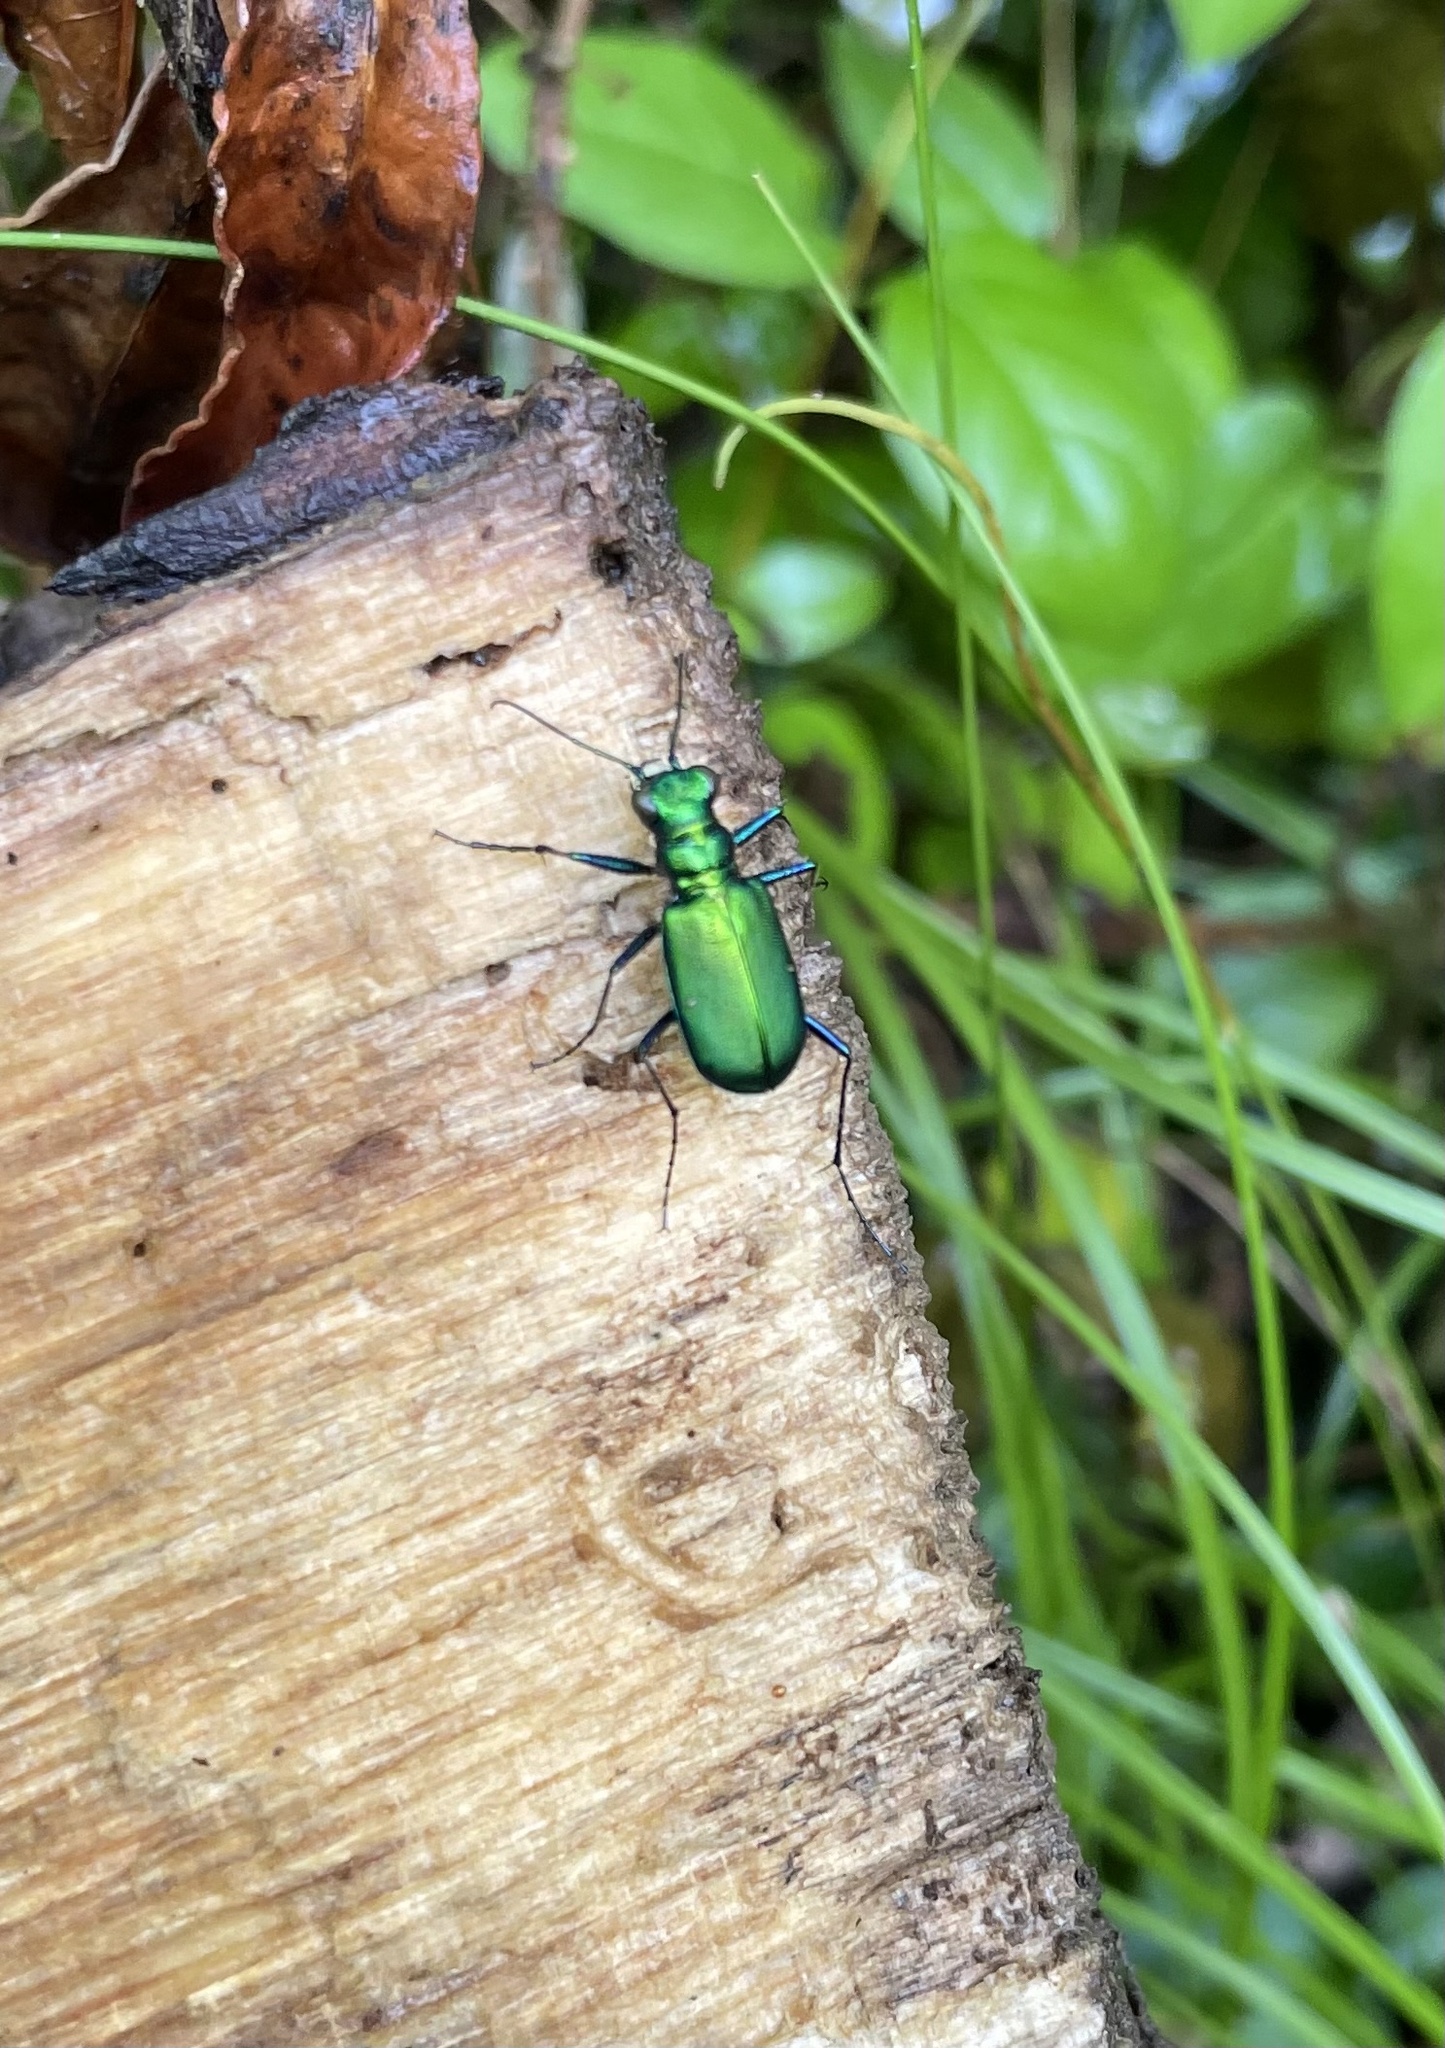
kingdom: Animalia
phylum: Arthropoda
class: Insecta
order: Coleoptera
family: Carabidae
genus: Cicindela
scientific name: Cicindela sexguttata
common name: Six-spotted tiger beetle
